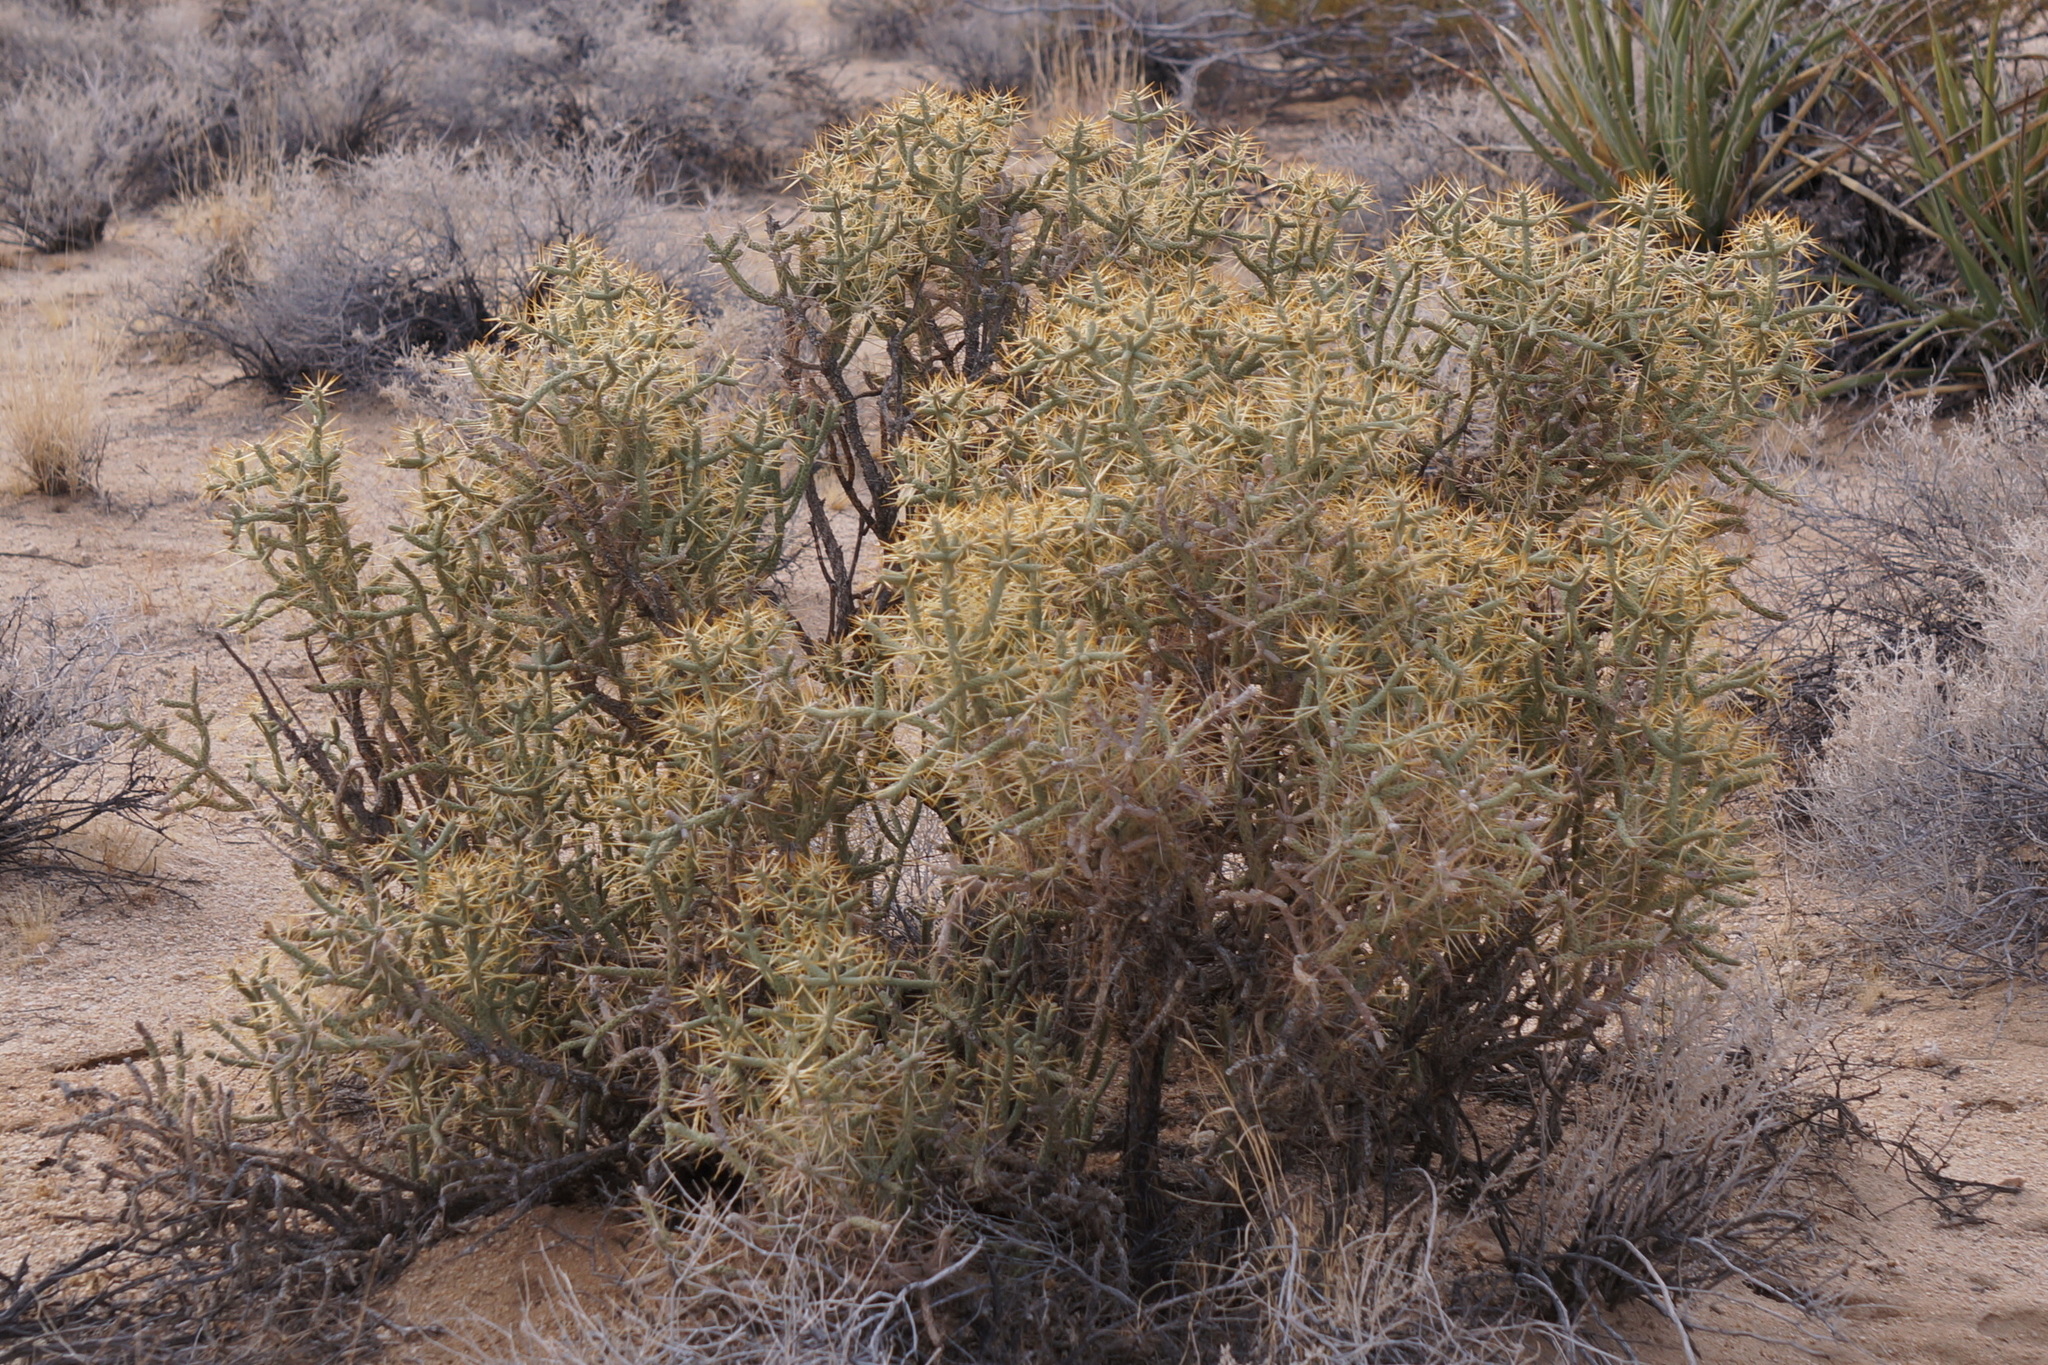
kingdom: Plantae
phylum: Tracheophyta
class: Magnoliopsida
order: Caryophyllales
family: Cactaceae
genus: Cylindropuntia
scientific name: Cylindropuntia ramosissima
